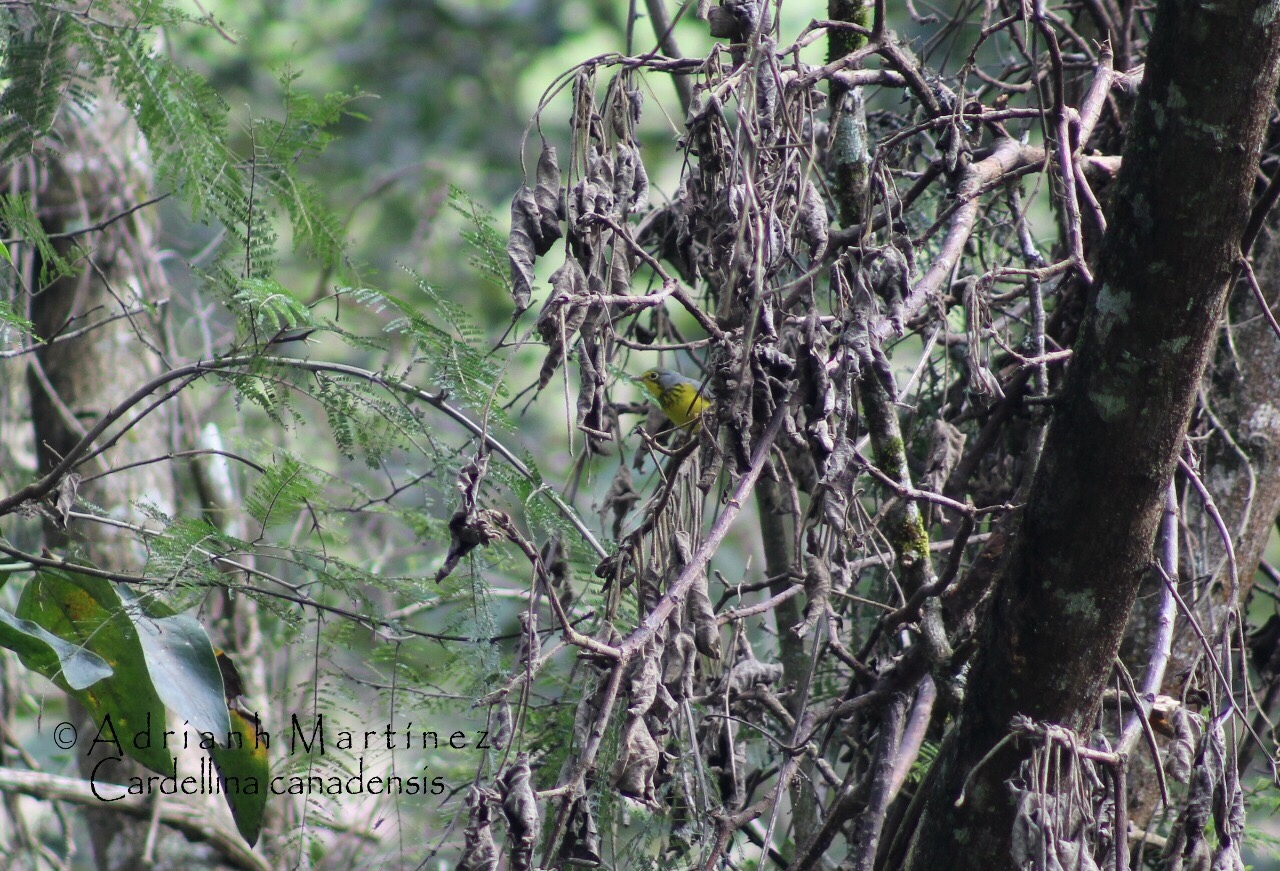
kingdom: Animalia
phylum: Chordata
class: Aves
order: Passeriformes
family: Parulidae
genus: Cardellina
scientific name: Cardellina canadensis
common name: Canada warbler
